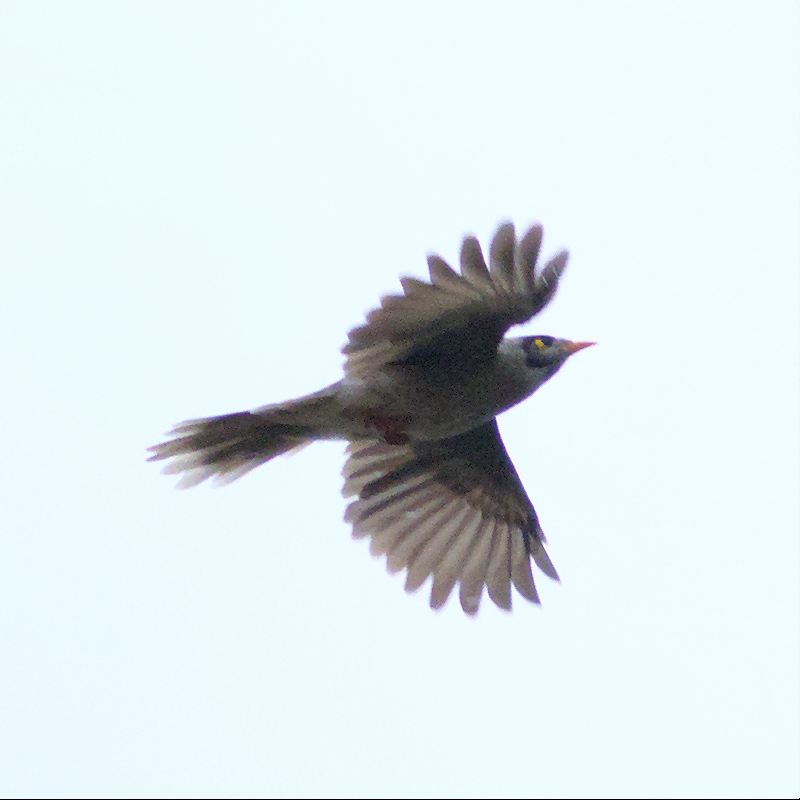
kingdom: Animalia
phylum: Chordata
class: Aves
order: Passeriformes
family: Meliphagidae
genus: Manorina
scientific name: Manorina melanocephala
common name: Noisy miner
